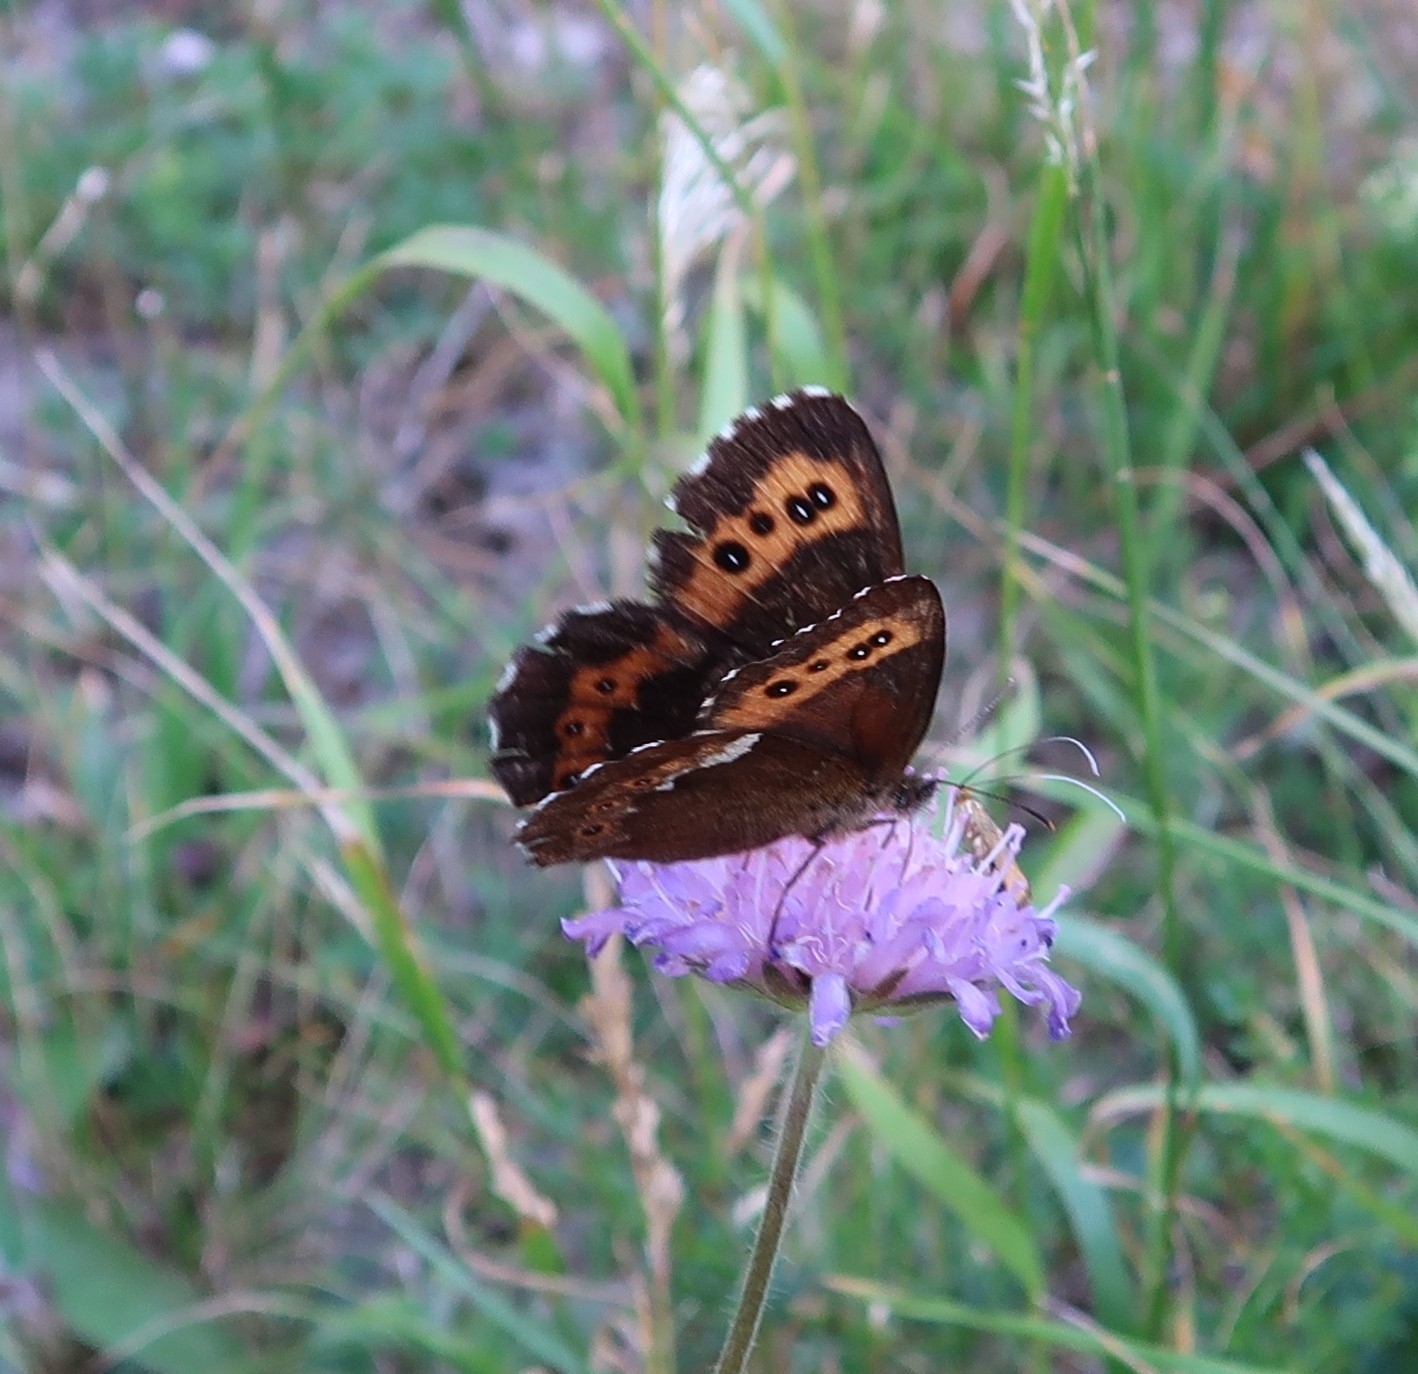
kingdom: Animalia
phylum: Arthropoda
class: Insecta
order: Lepidoptera
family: Nymphalidae
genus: Erebia
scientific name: Erebia ligea
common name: Arran brown
